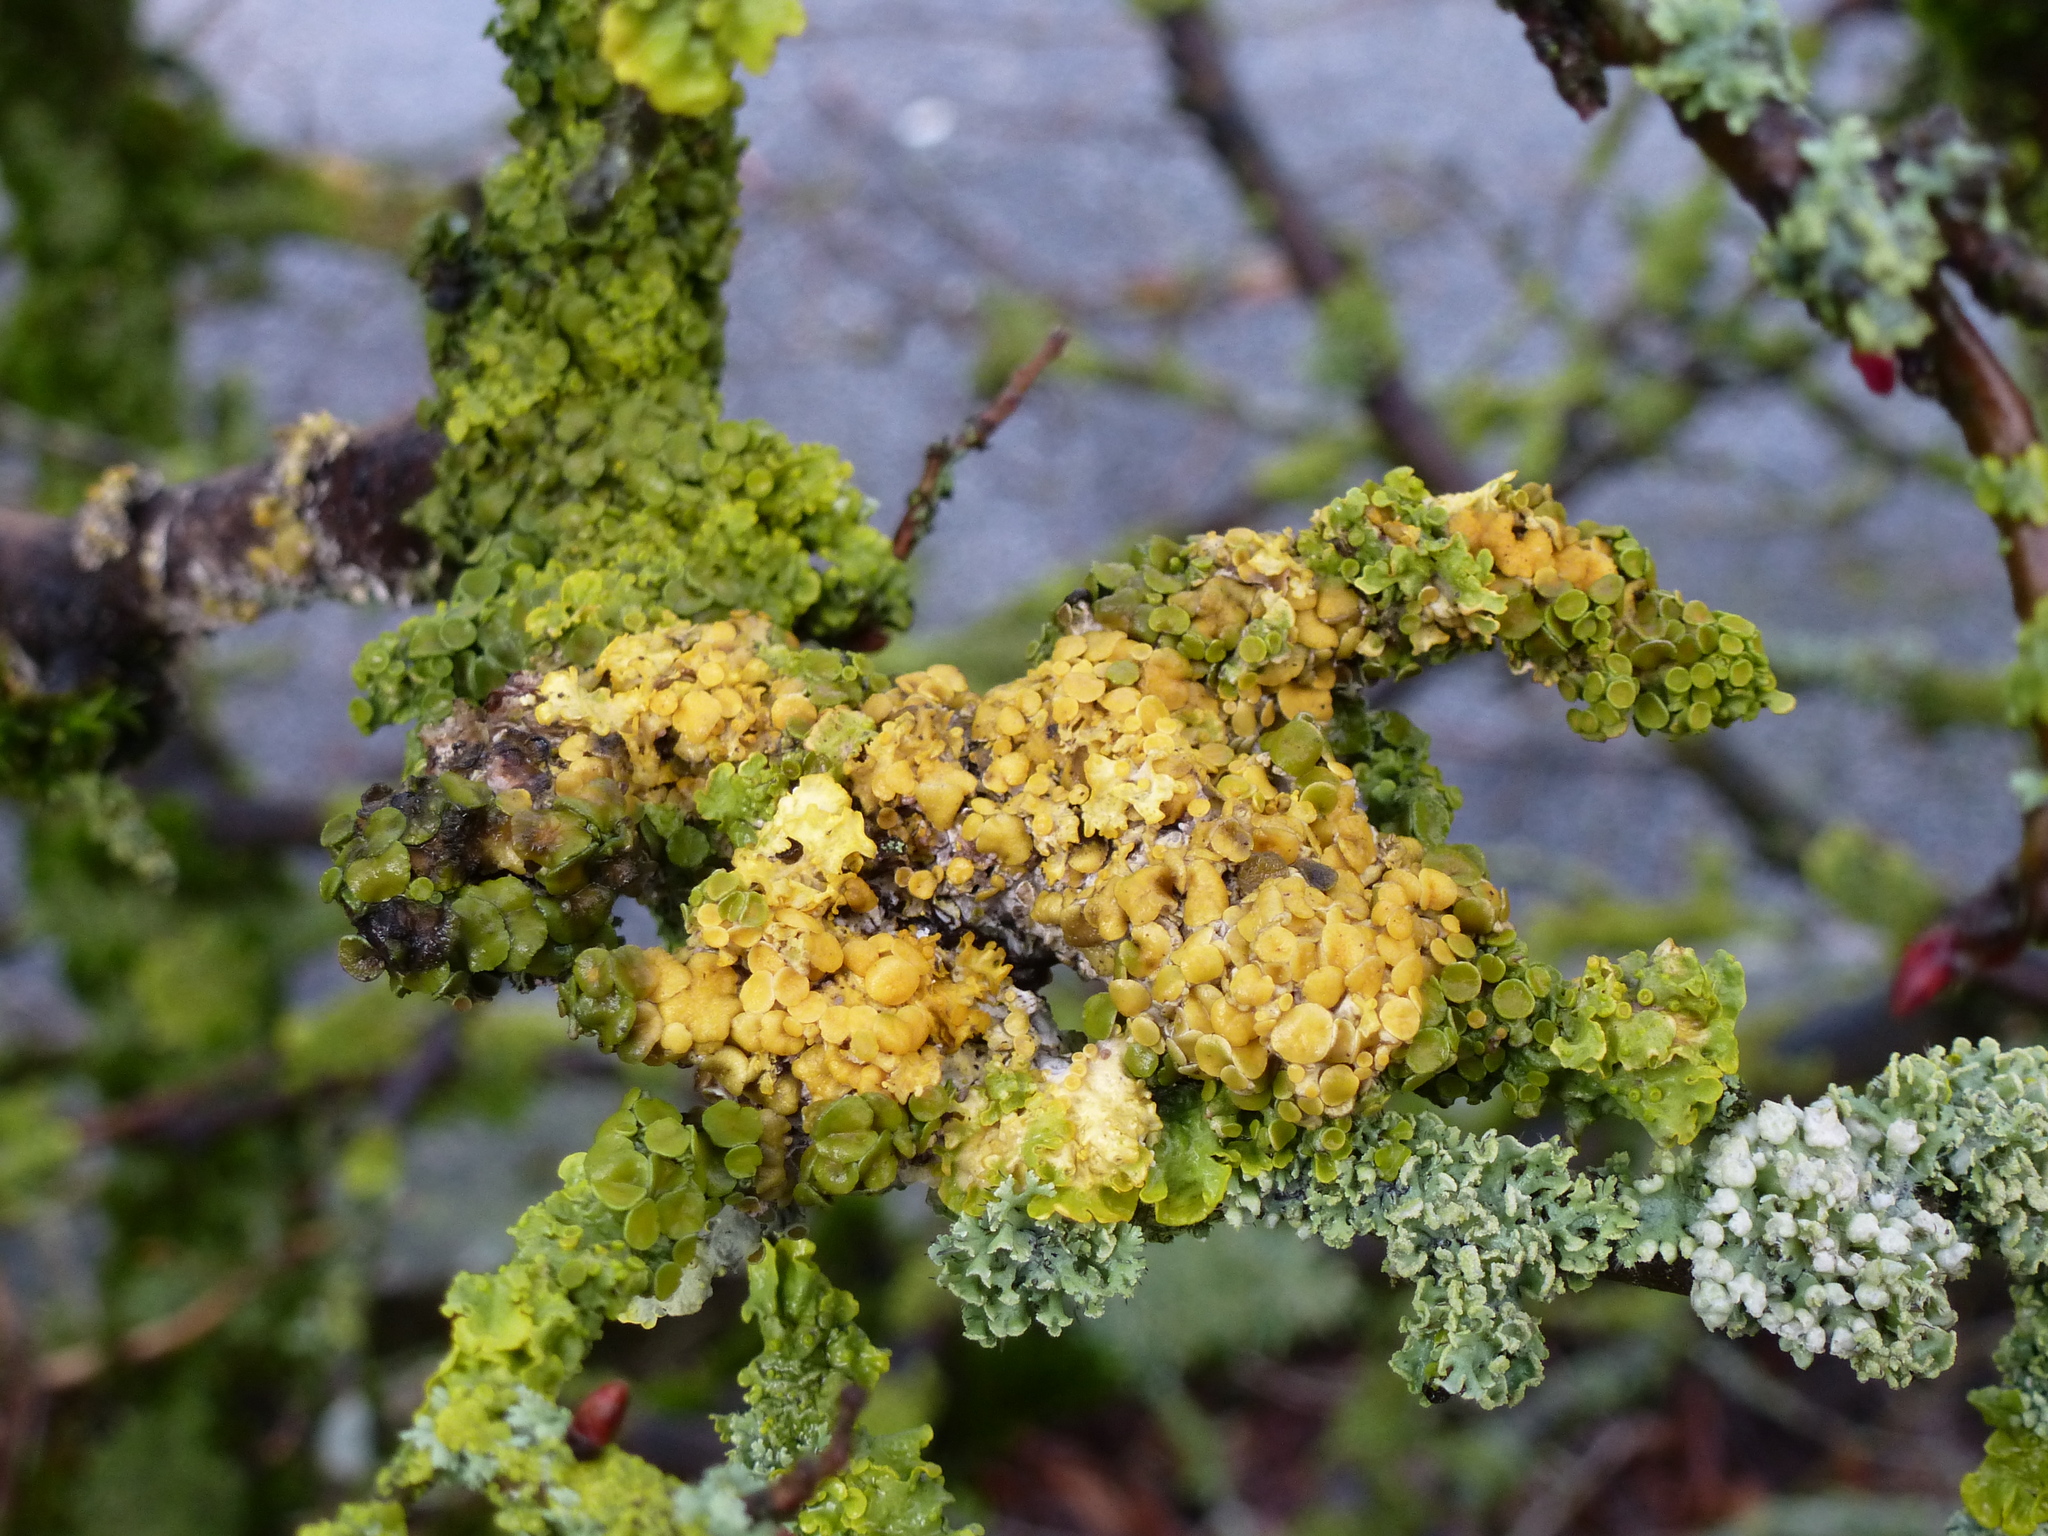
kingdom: Fungi
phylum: Ascomycota
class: Lecanoromycetes
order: Teloschistales
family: Teloschistaceae
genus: Xanthoria
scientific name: Xanthoria parietina
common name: Common orange lichen
